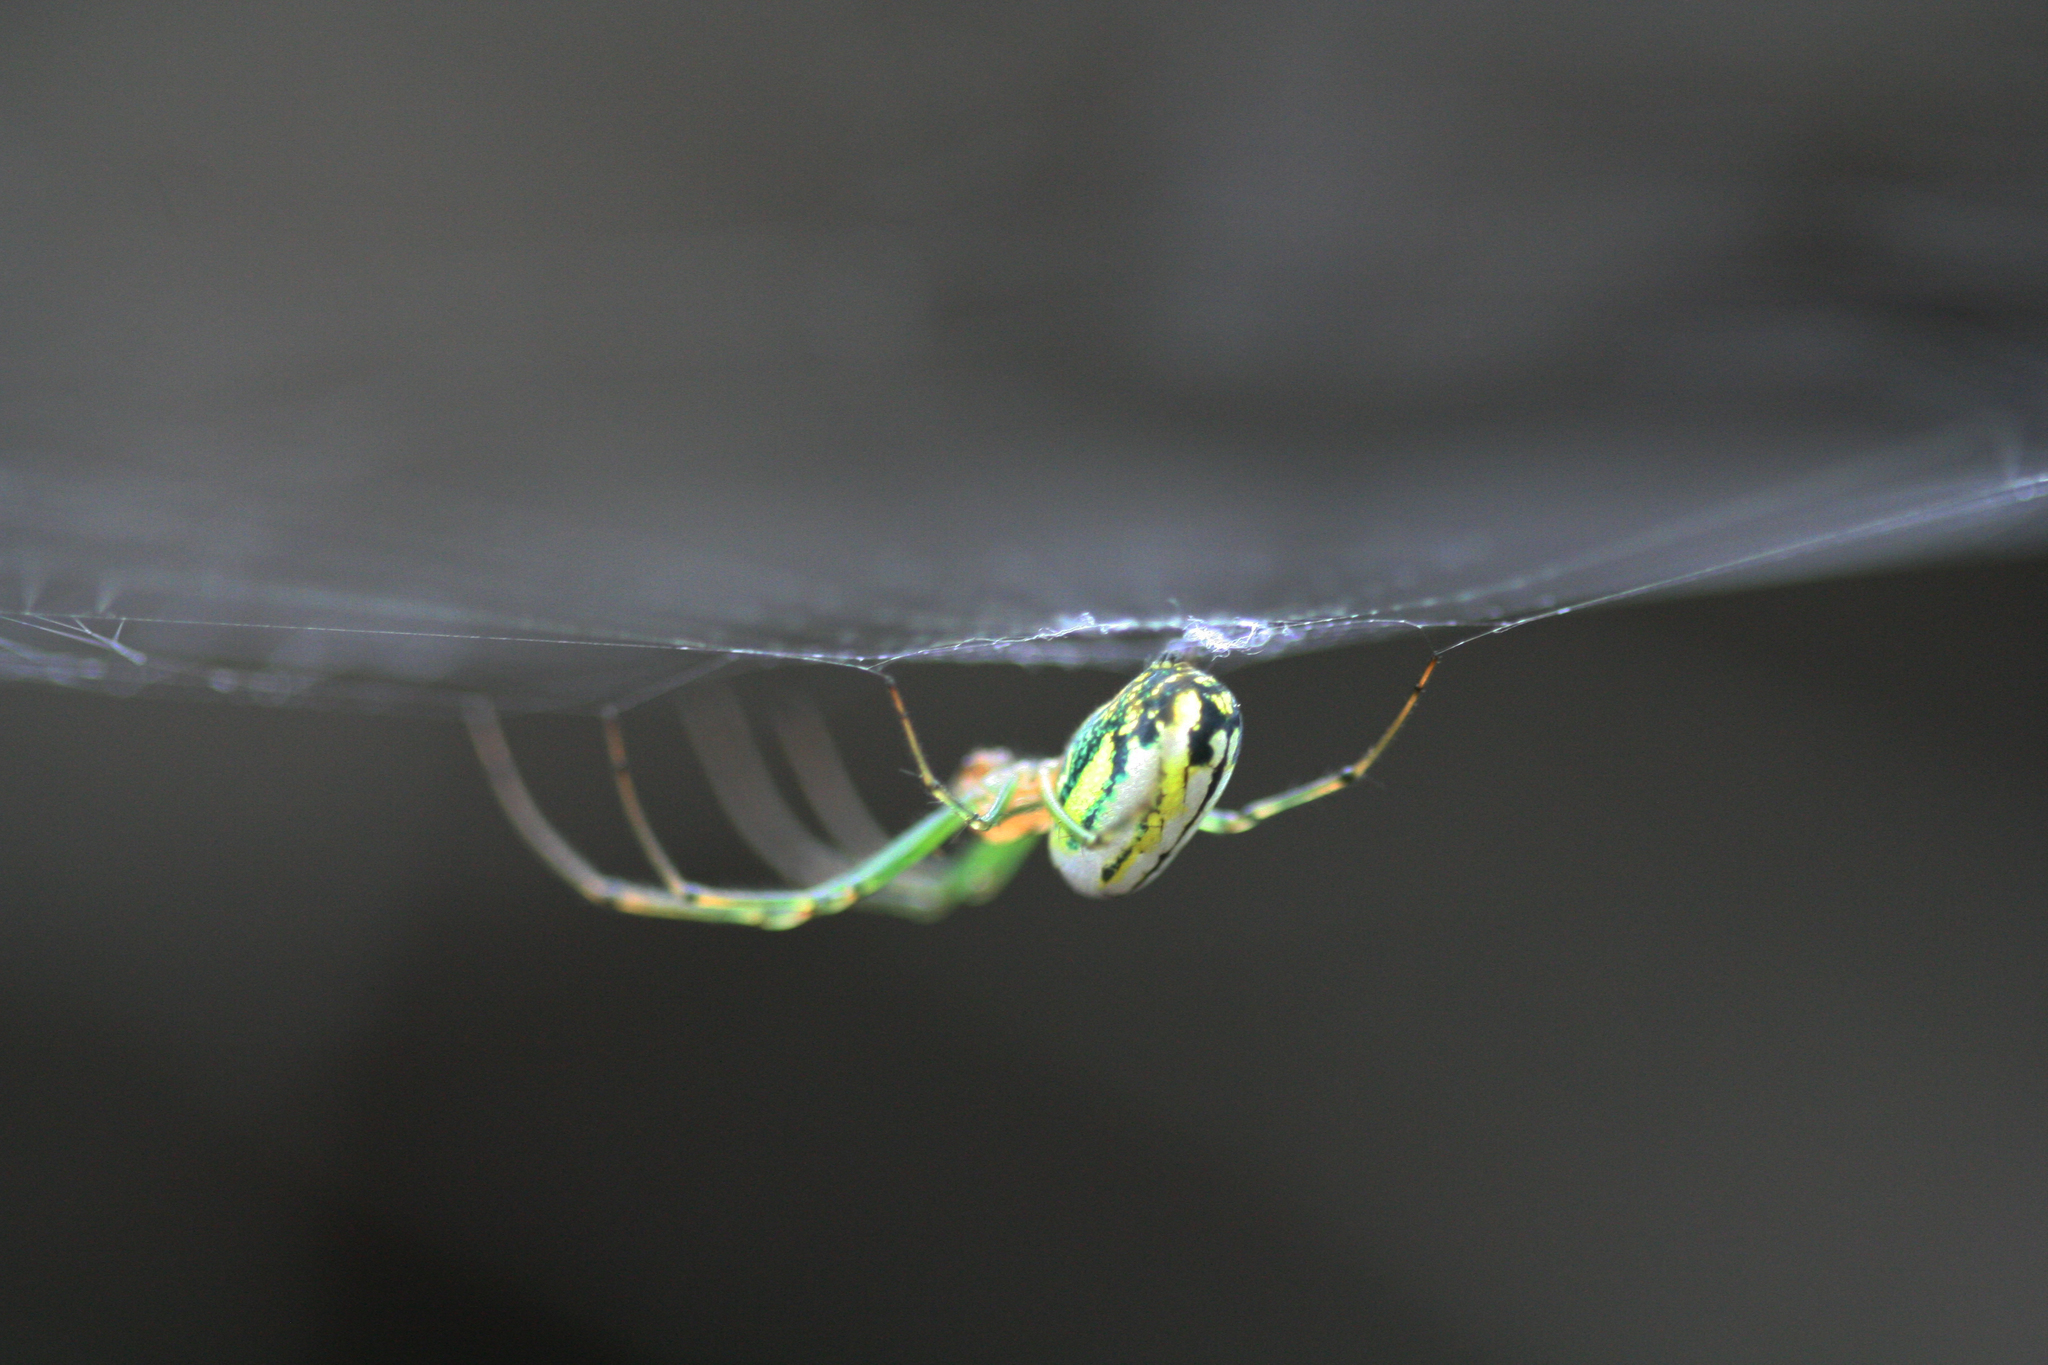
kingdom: Animalia
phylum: Arthropoda
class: Arachnida
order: Araneae
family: Tetragnathidae
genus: Leucauge
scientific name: Leucauge venusta
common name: Longjawed orb weavers
